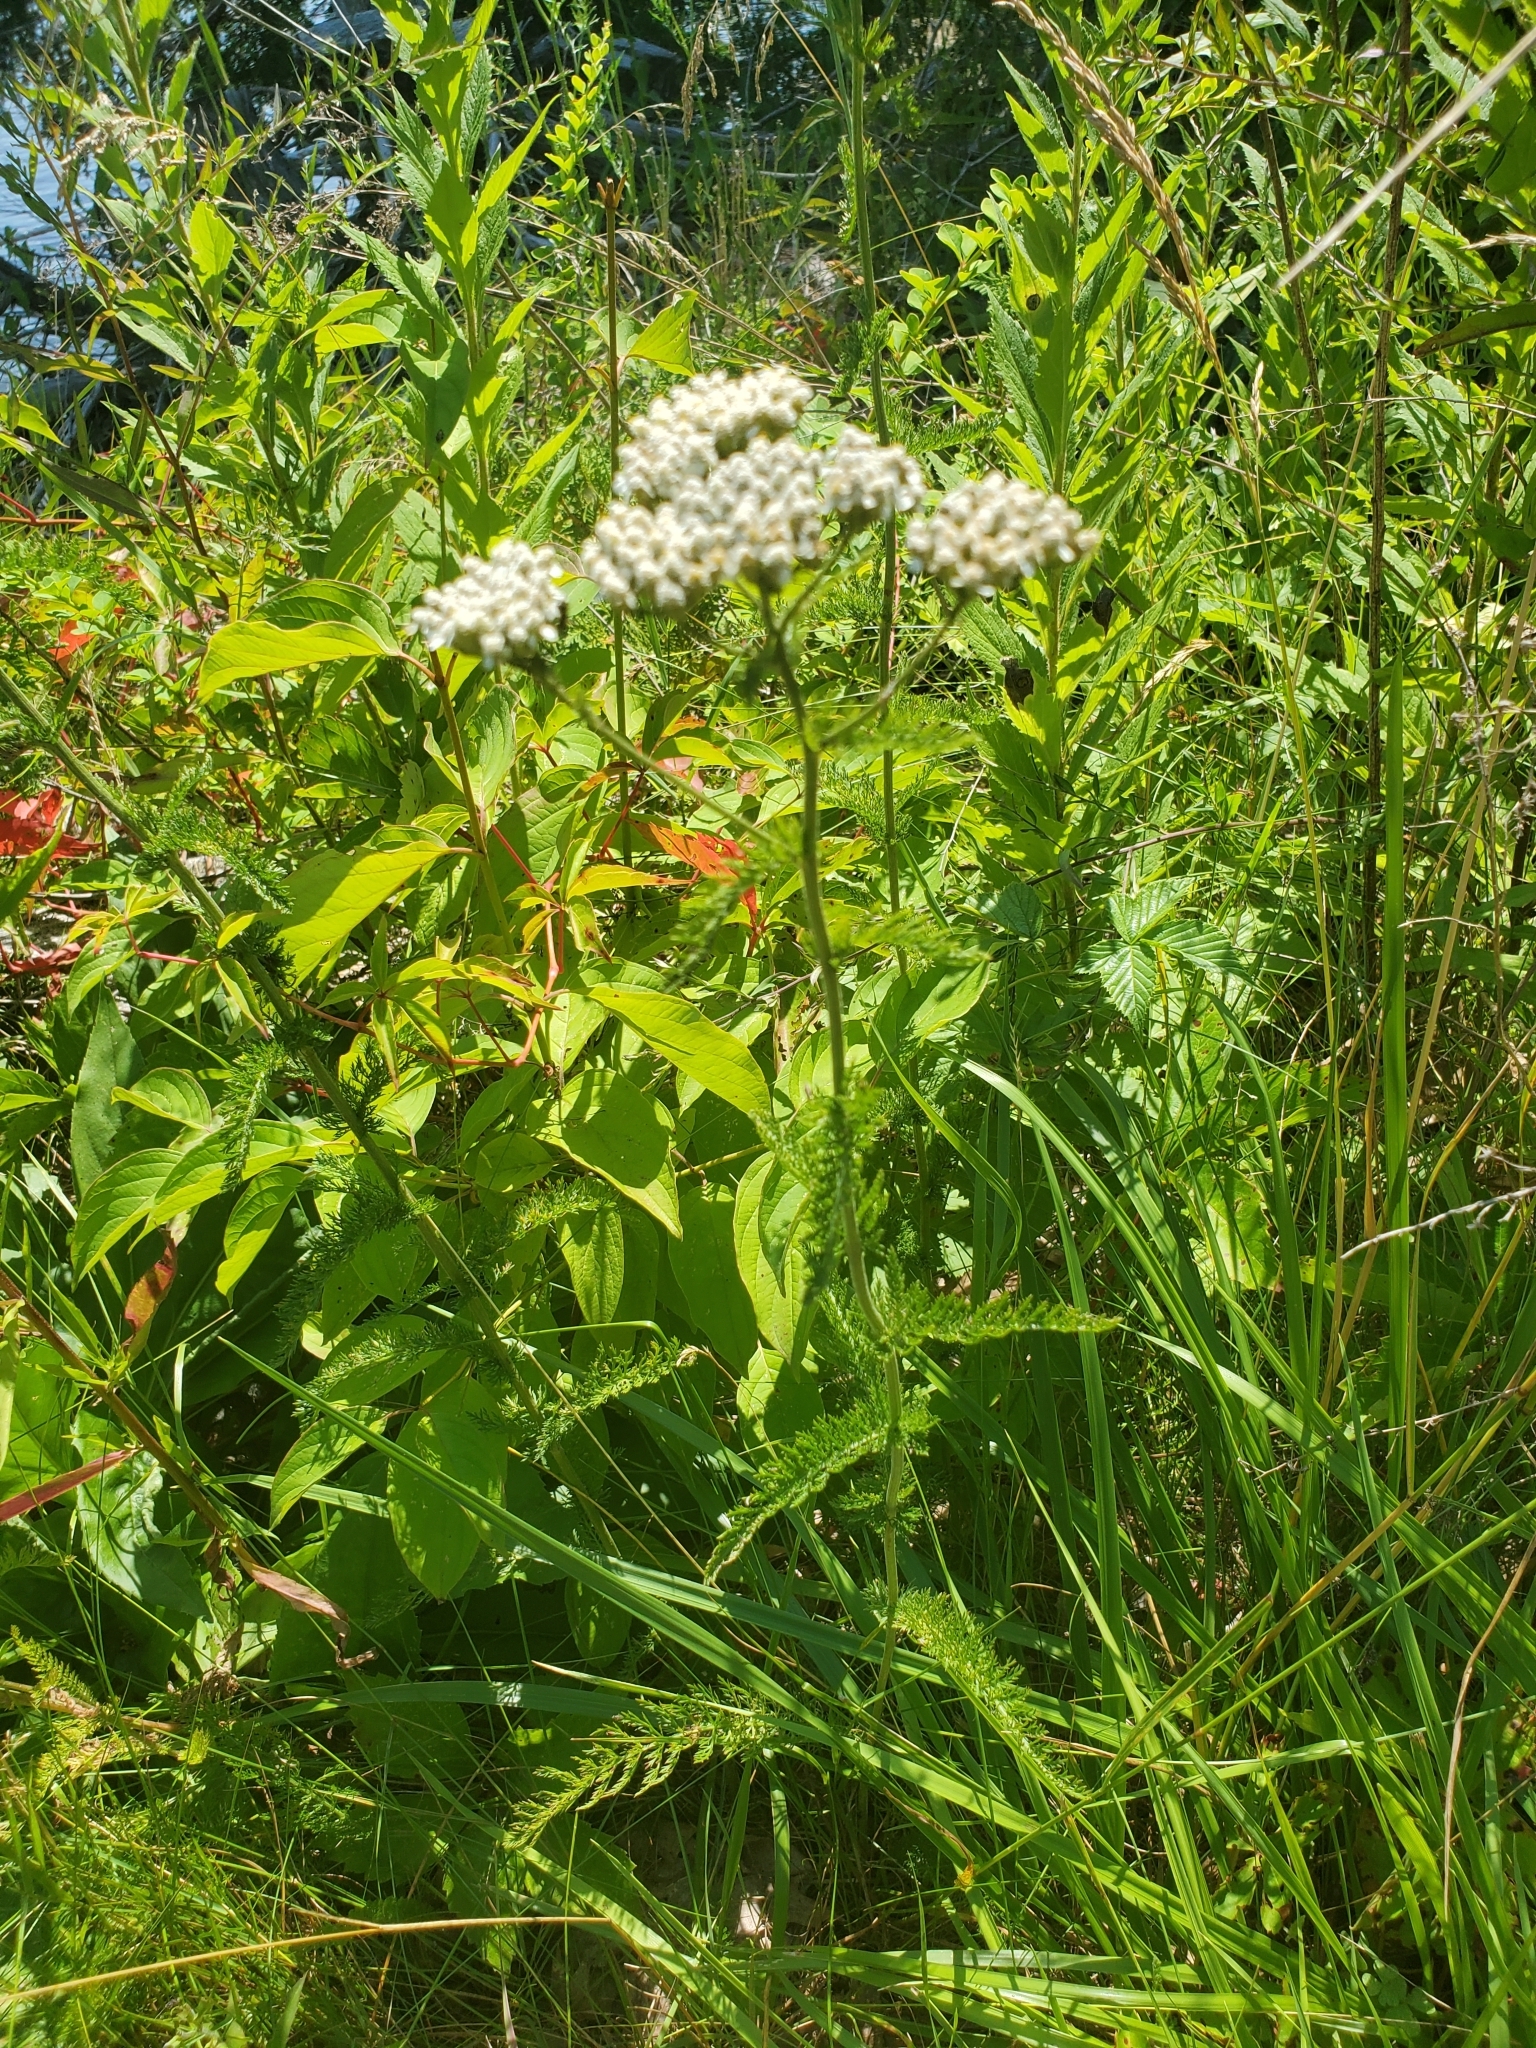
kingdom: Plantae
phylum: Tracheophyta
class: Magnoliopsida
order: Asterales
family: Asteraceae
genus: Achillea
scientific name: Achillea millefolium
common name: Yarrow
